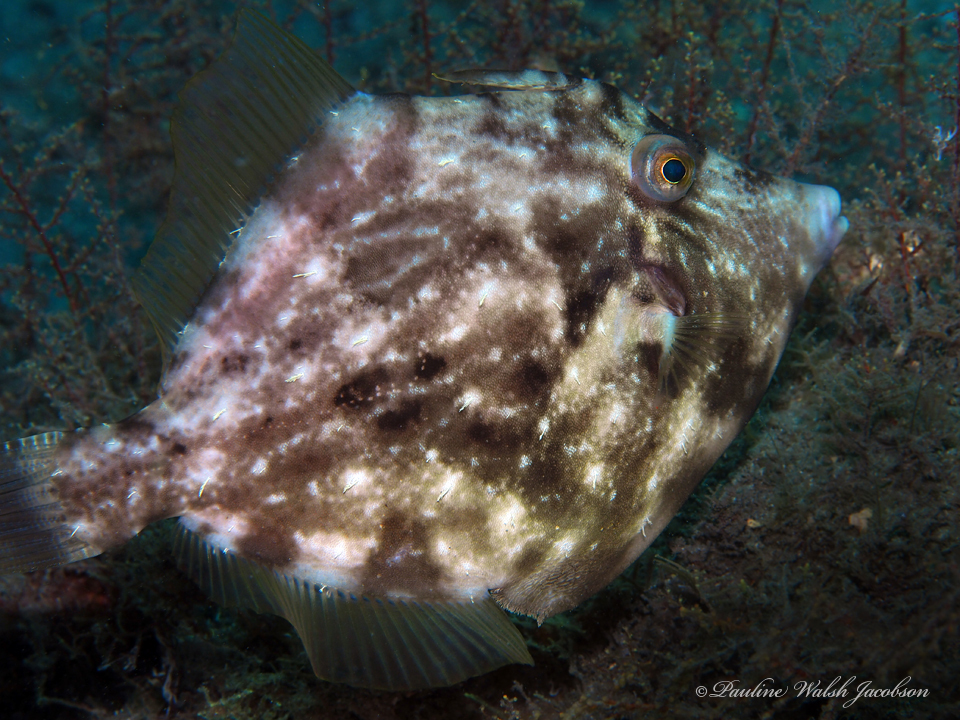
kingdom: Animalia
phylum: Chordata
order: Tetraodontiformes
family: Monacanthidae
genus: Stephanolepis
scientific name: Stephanolepis hispidus
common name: Planehead filefish
